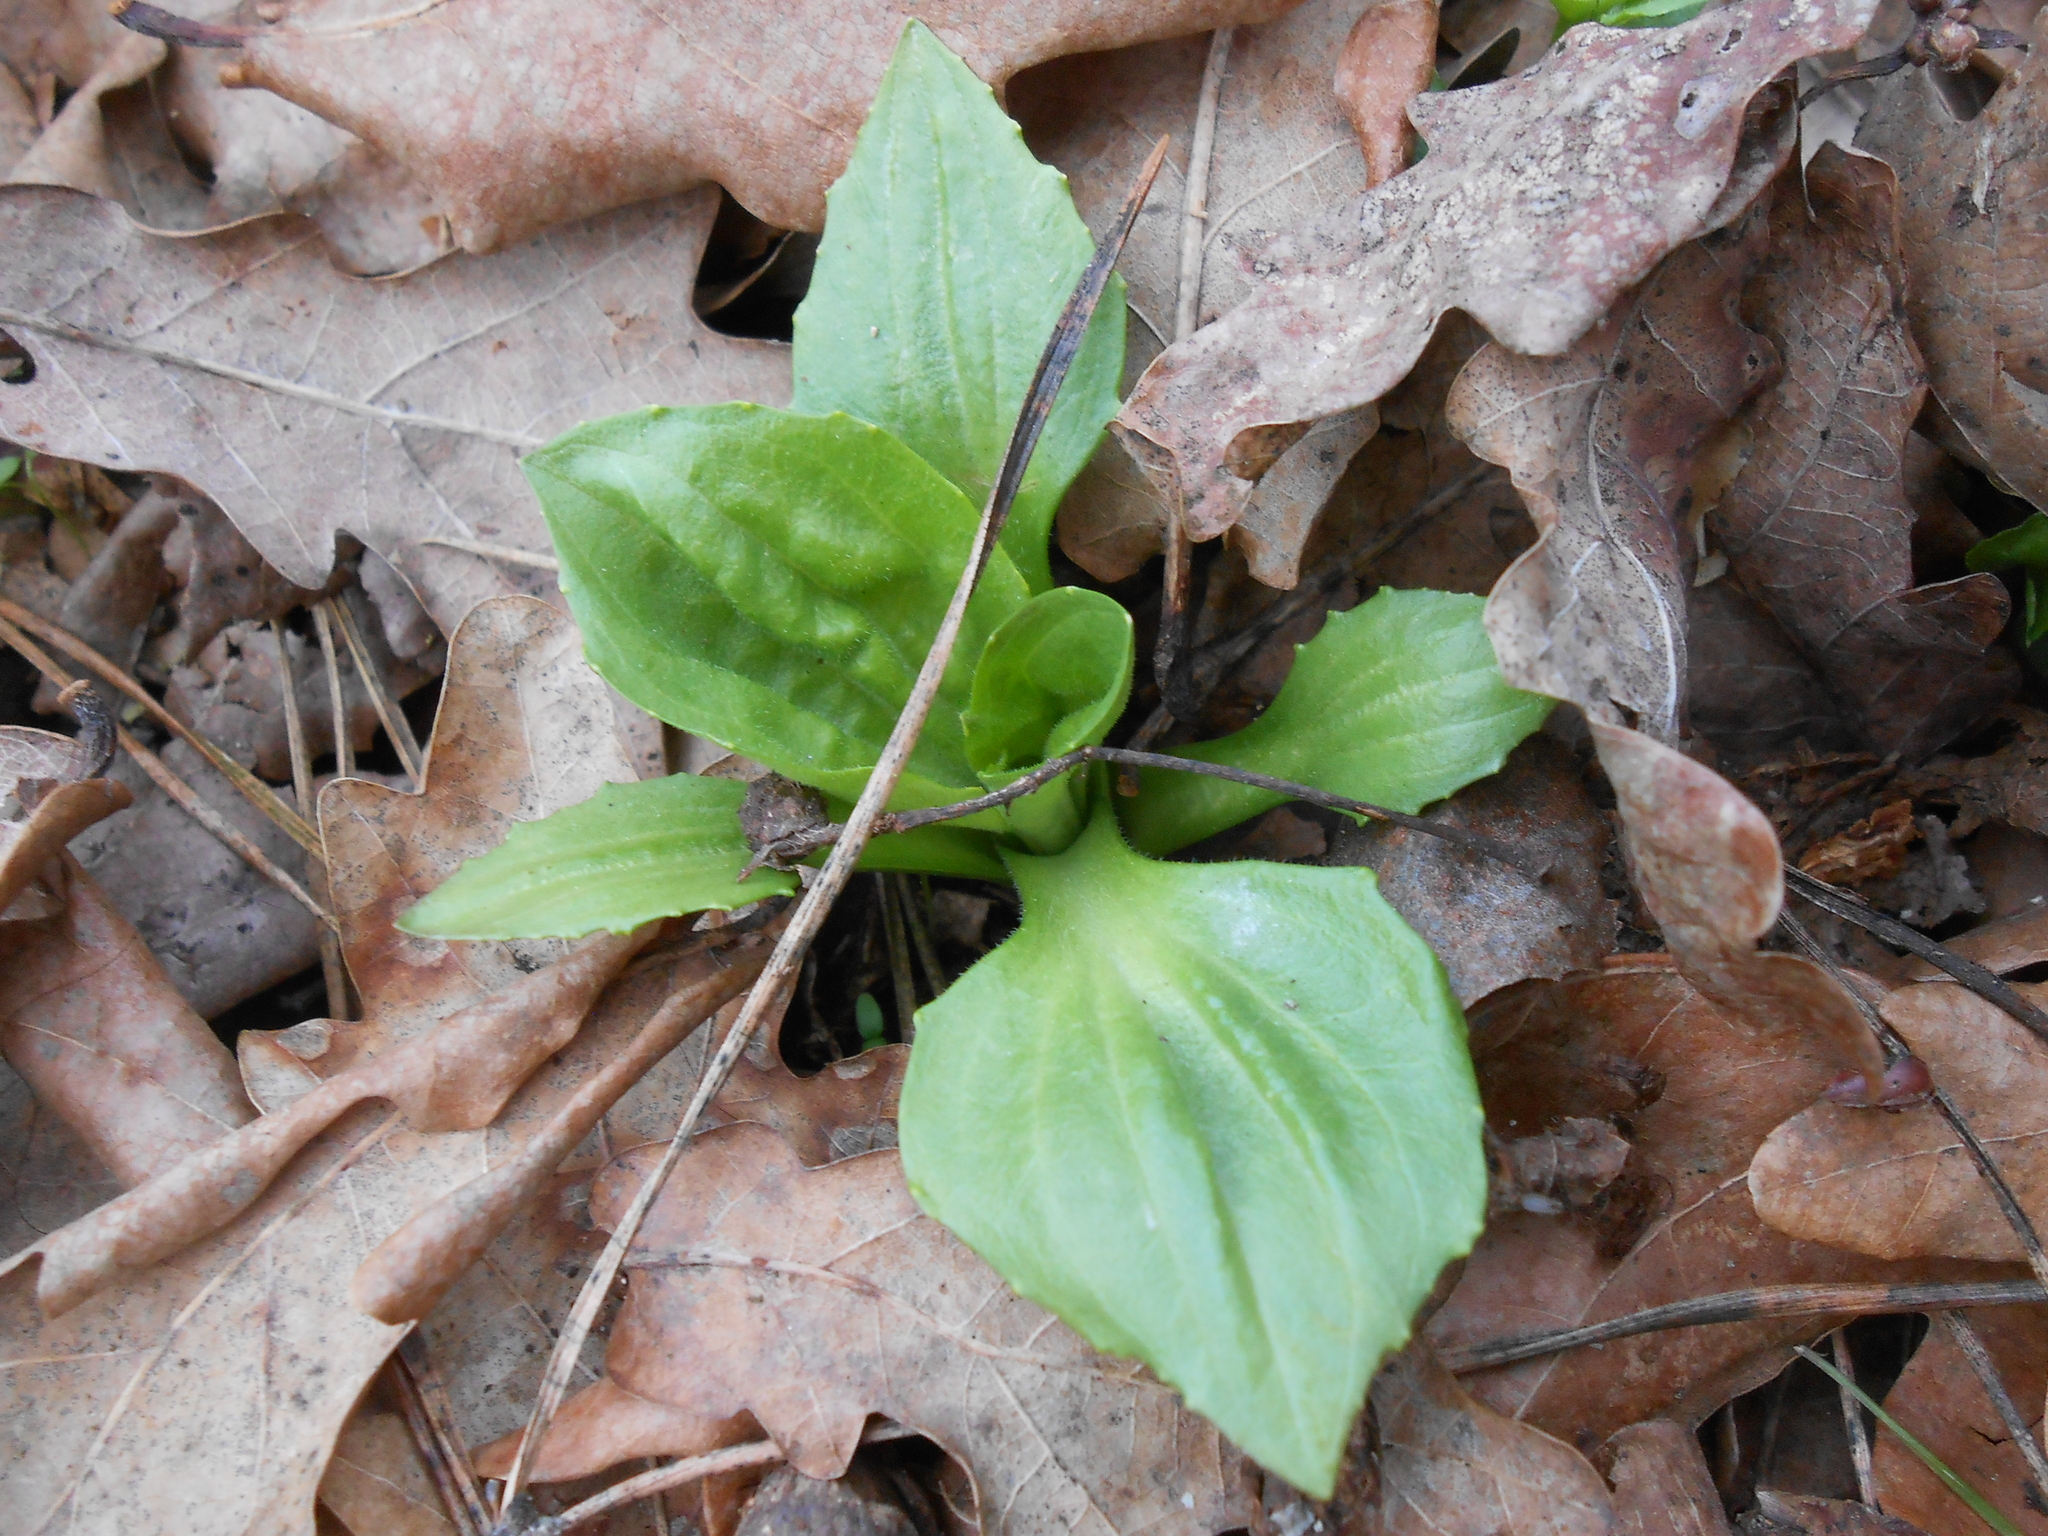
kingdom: Plantae
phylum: Tracheophyta
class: Magnoliopsida
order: Lamiales
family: Plantaginaceae
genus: Plantago
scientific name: Plantago major
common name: Common plantain
